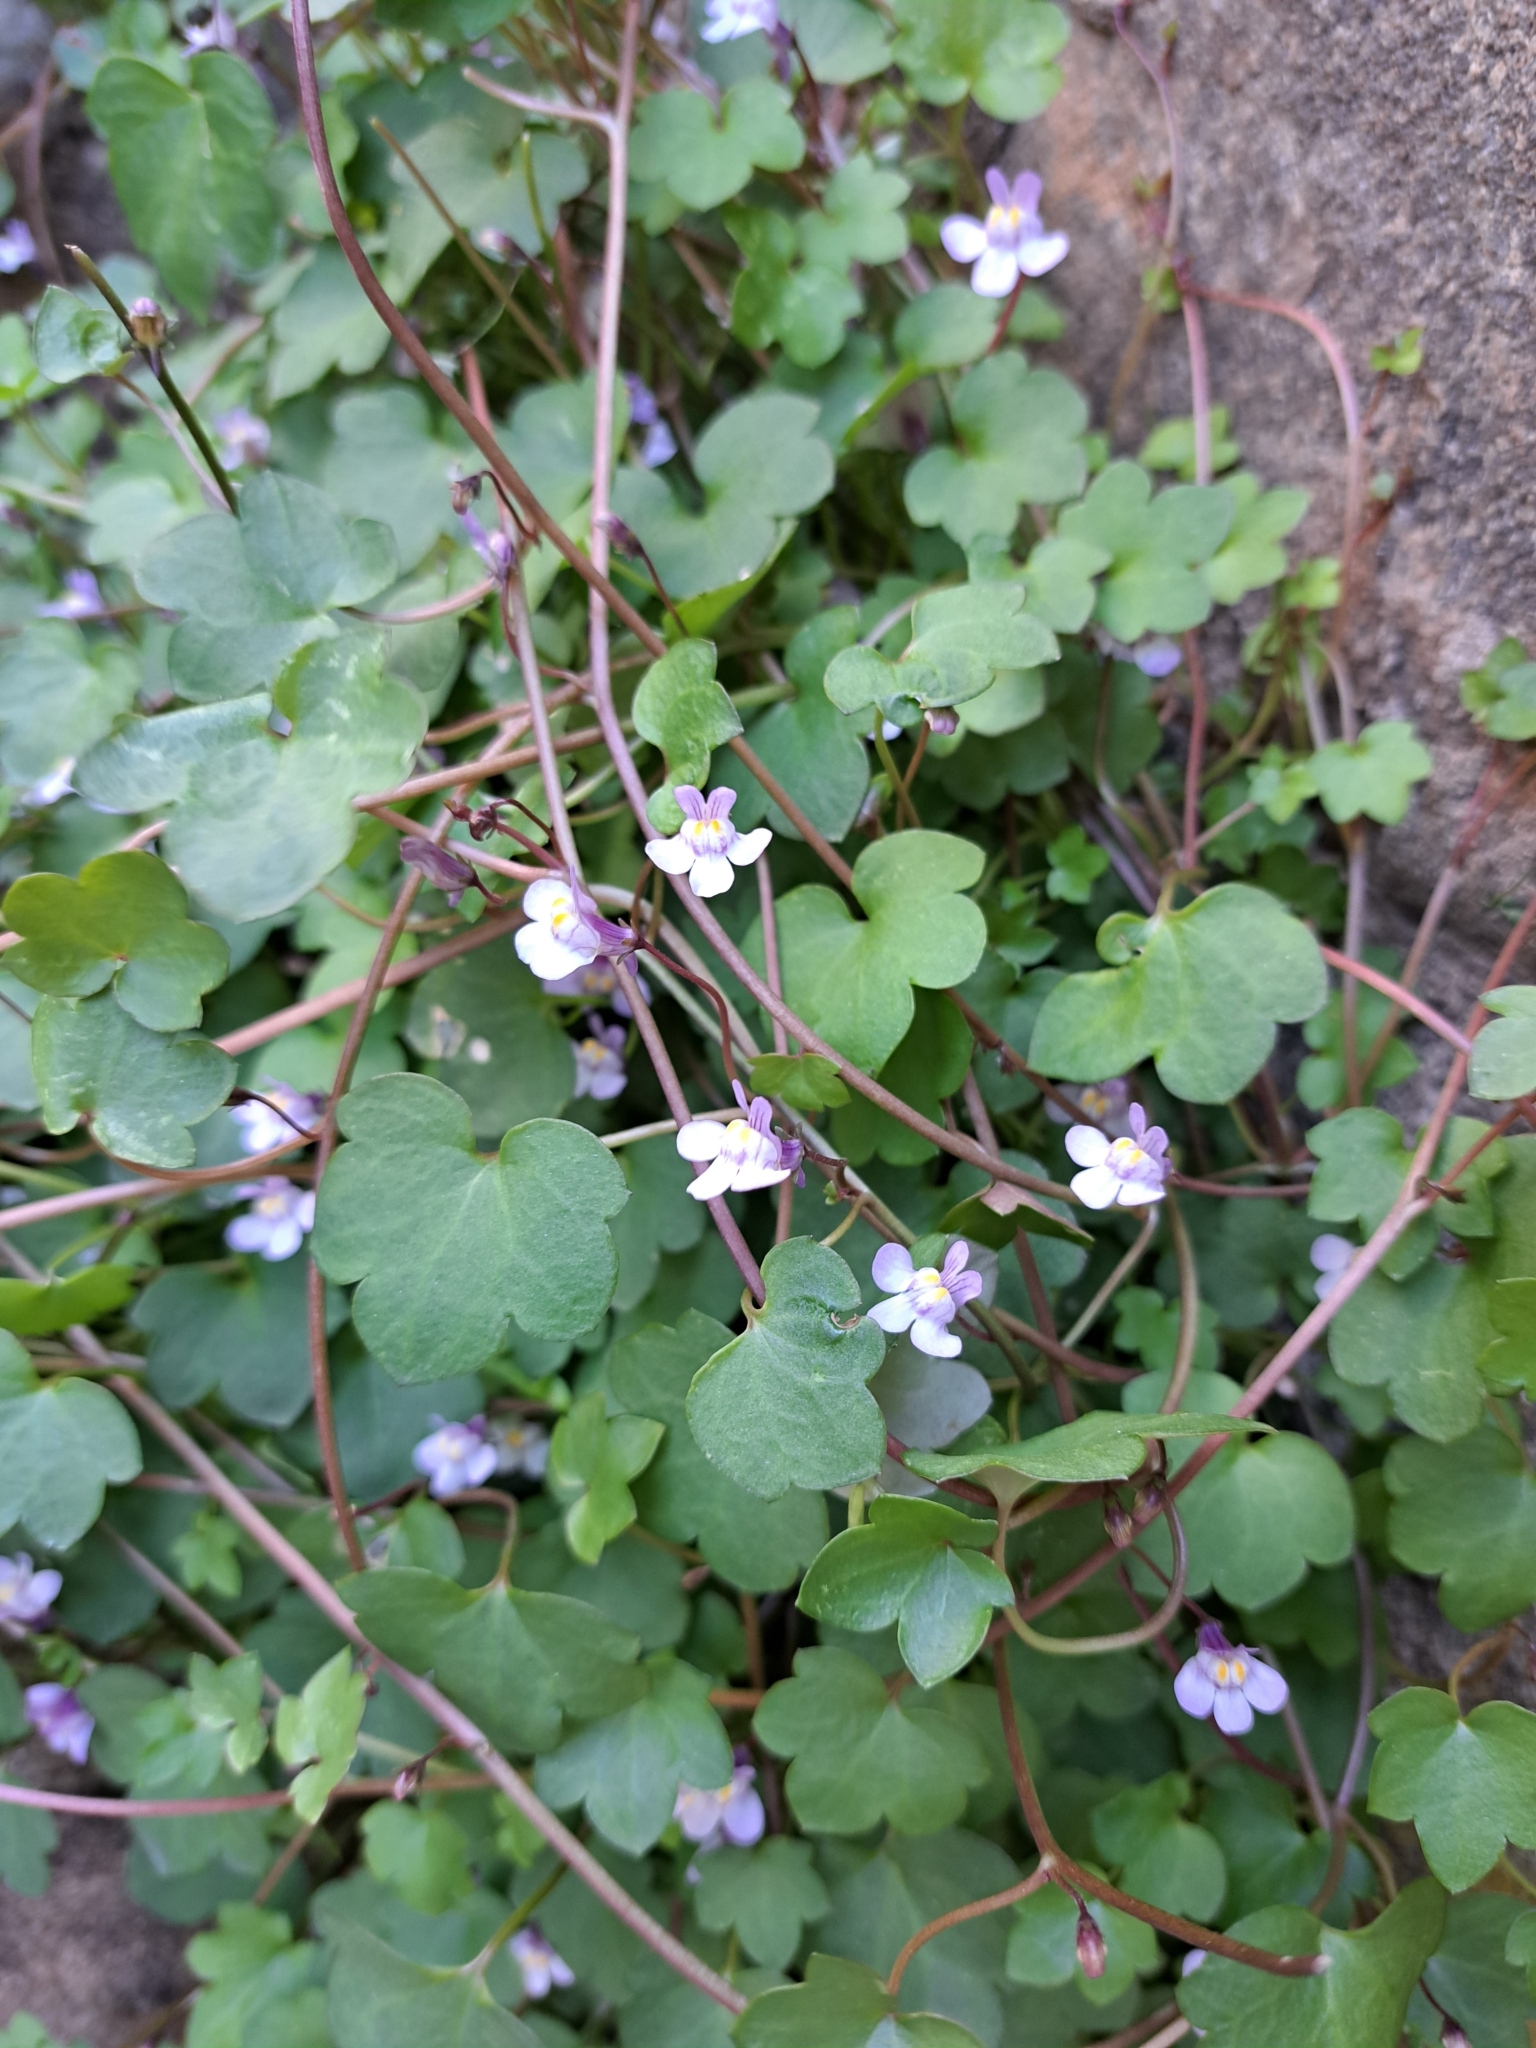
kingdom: Plantae
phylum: Tracheophyta
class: Magnoliopsida
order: Lamiales
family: Plantaginaceae
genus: Cymbalaria
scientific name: Cymbalaria muralis
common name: Ivy-leaved toadflax
